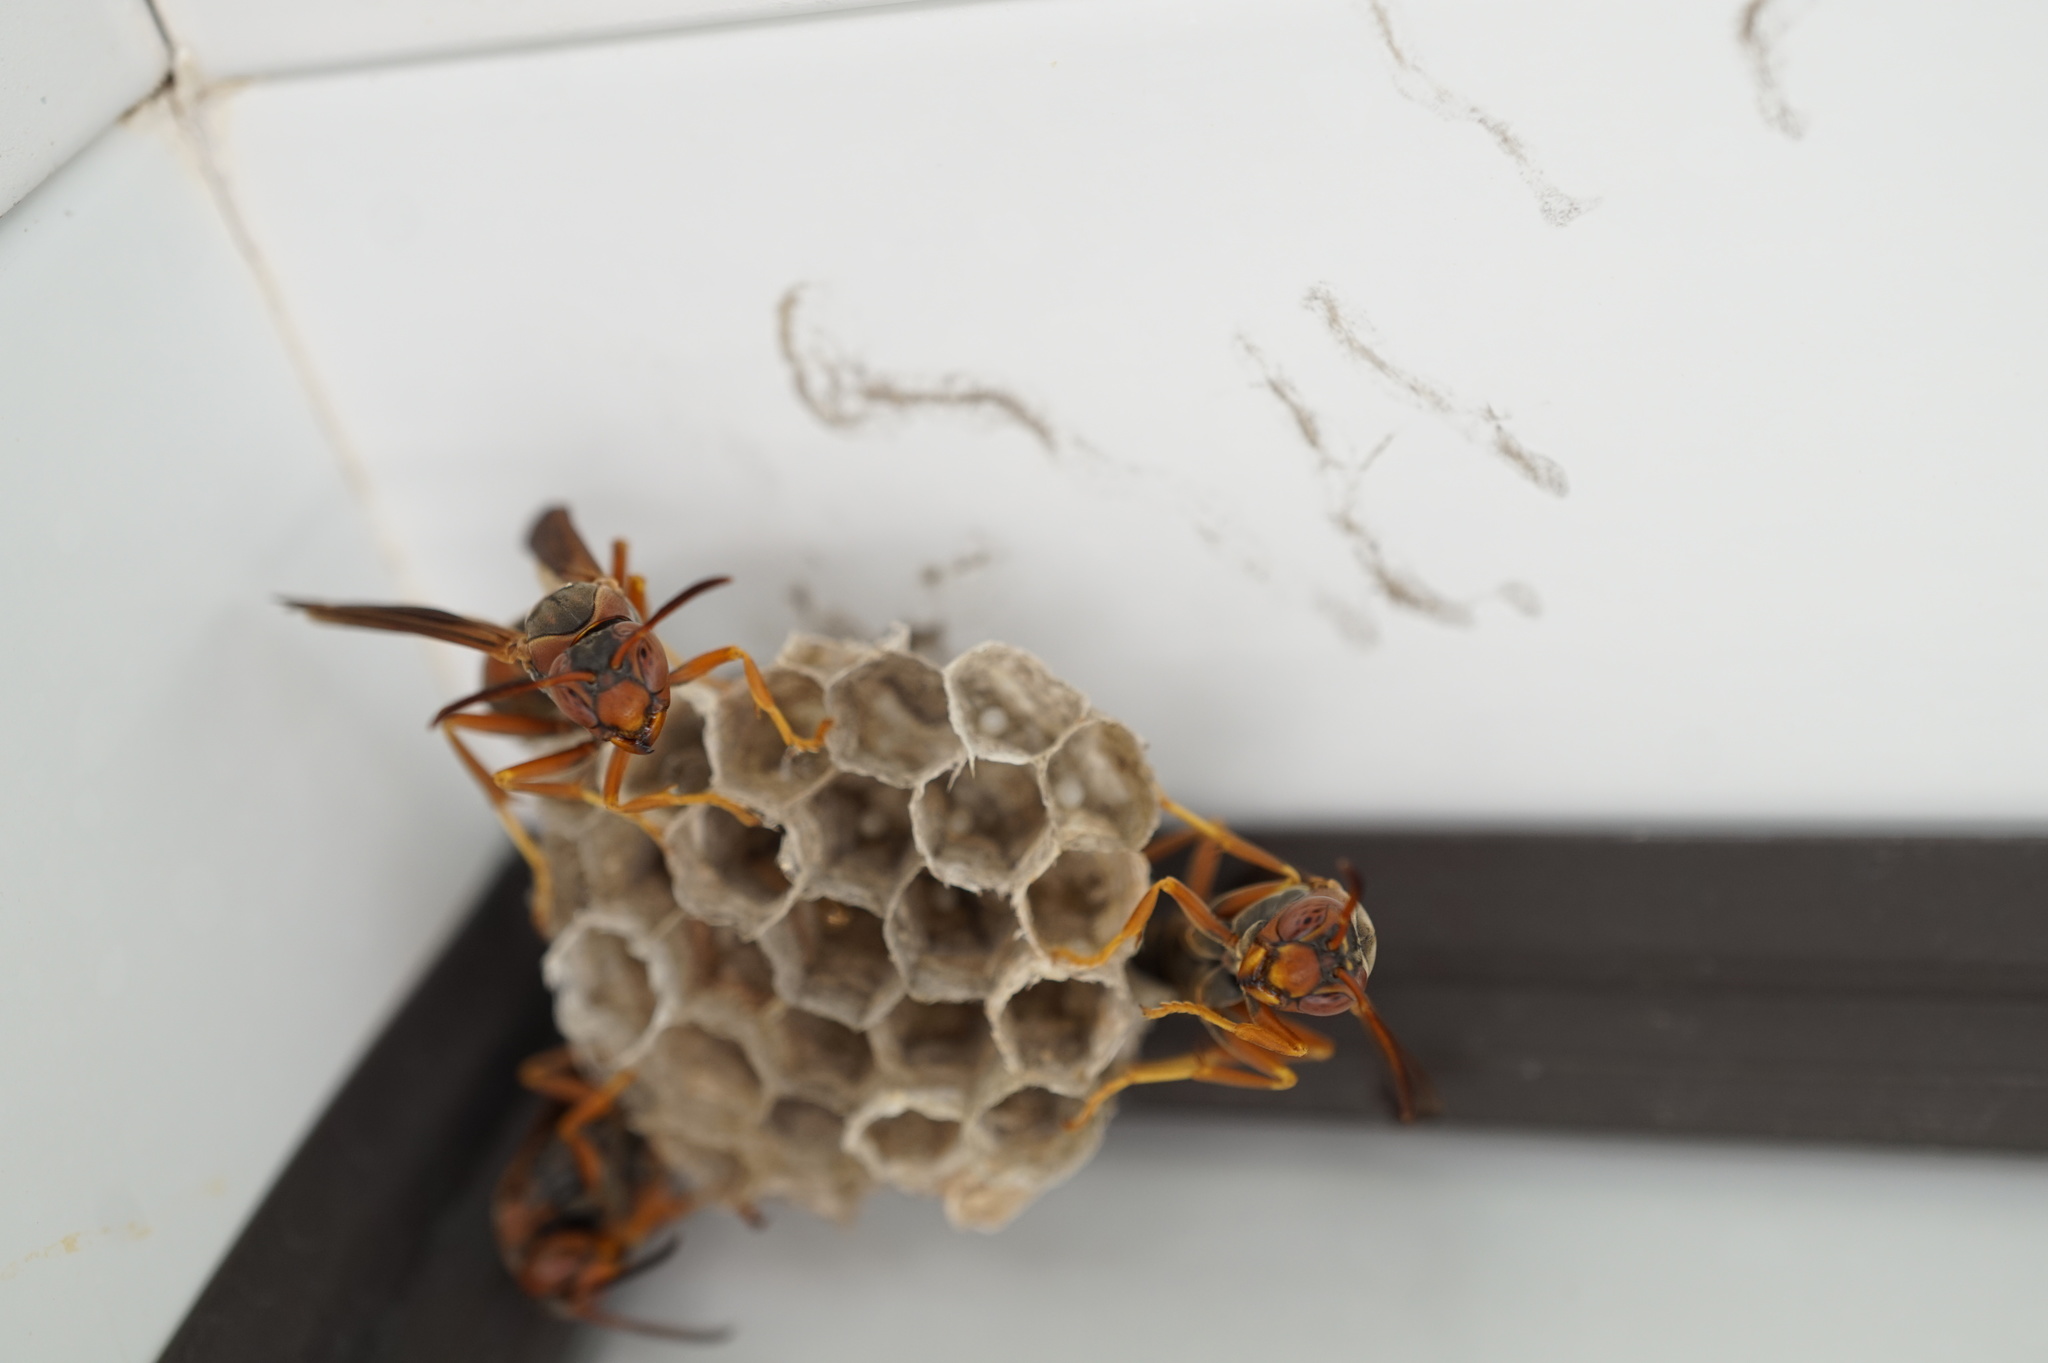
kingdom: Animalia
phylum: Arthropoda
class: Insecta
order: Hymenoptera
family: Eumenidae
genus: Polistes
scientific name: Polistes fuscatus
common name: Dark paper wasp
